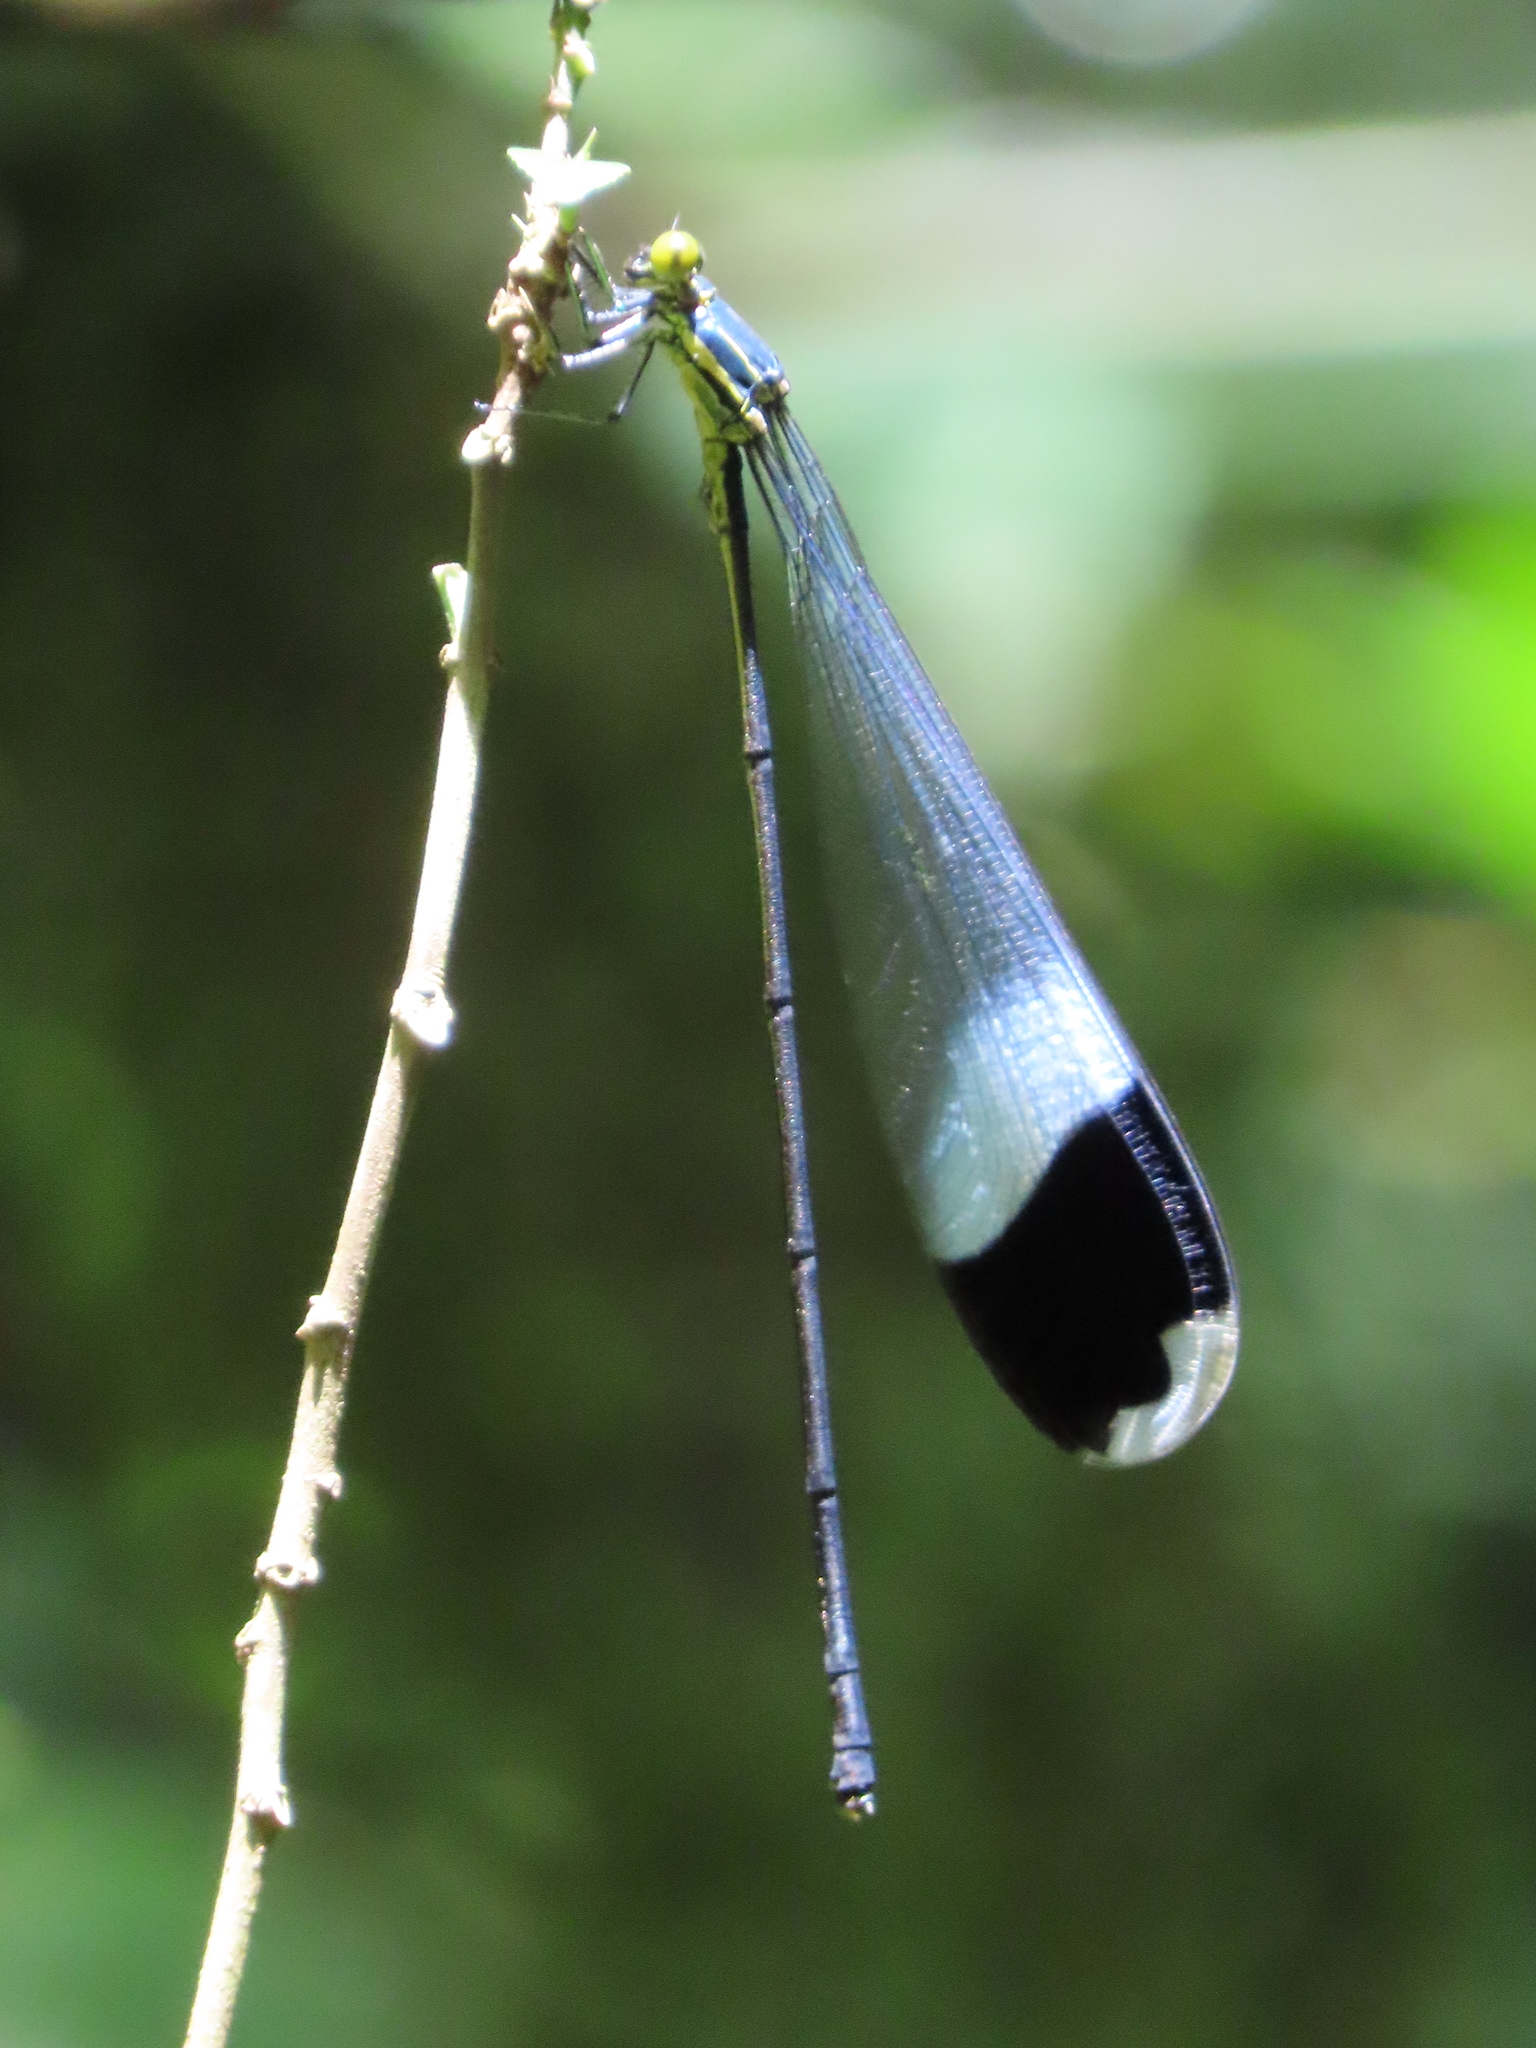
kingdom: Animalia
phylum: Arthropoda
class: Insecta
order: Odonata
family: Coenagrionidae
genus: Megaloprepus
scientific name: Megaloprepus caerulatus
